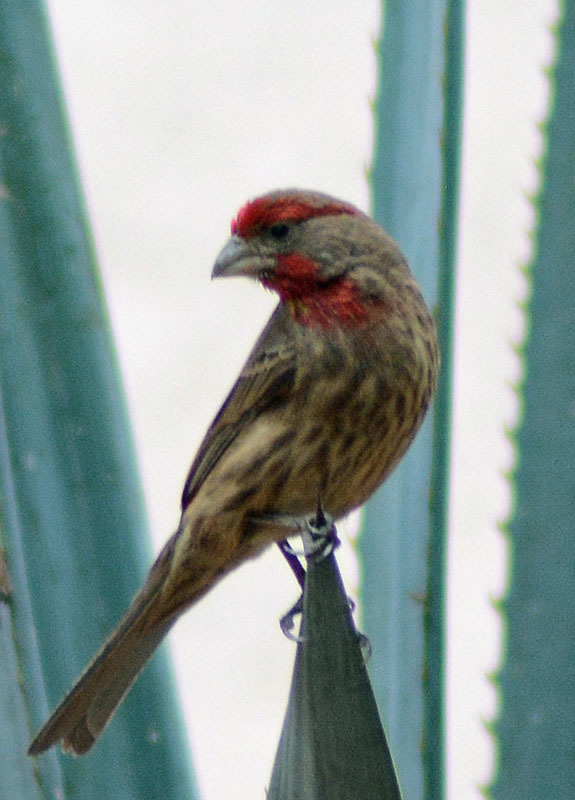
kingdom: Animalia
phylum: Chordata
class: Aves
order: Passeriformes
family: Fringillidae
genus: Haemorhous
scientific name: Haemorhous mexicanus
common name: House finch
